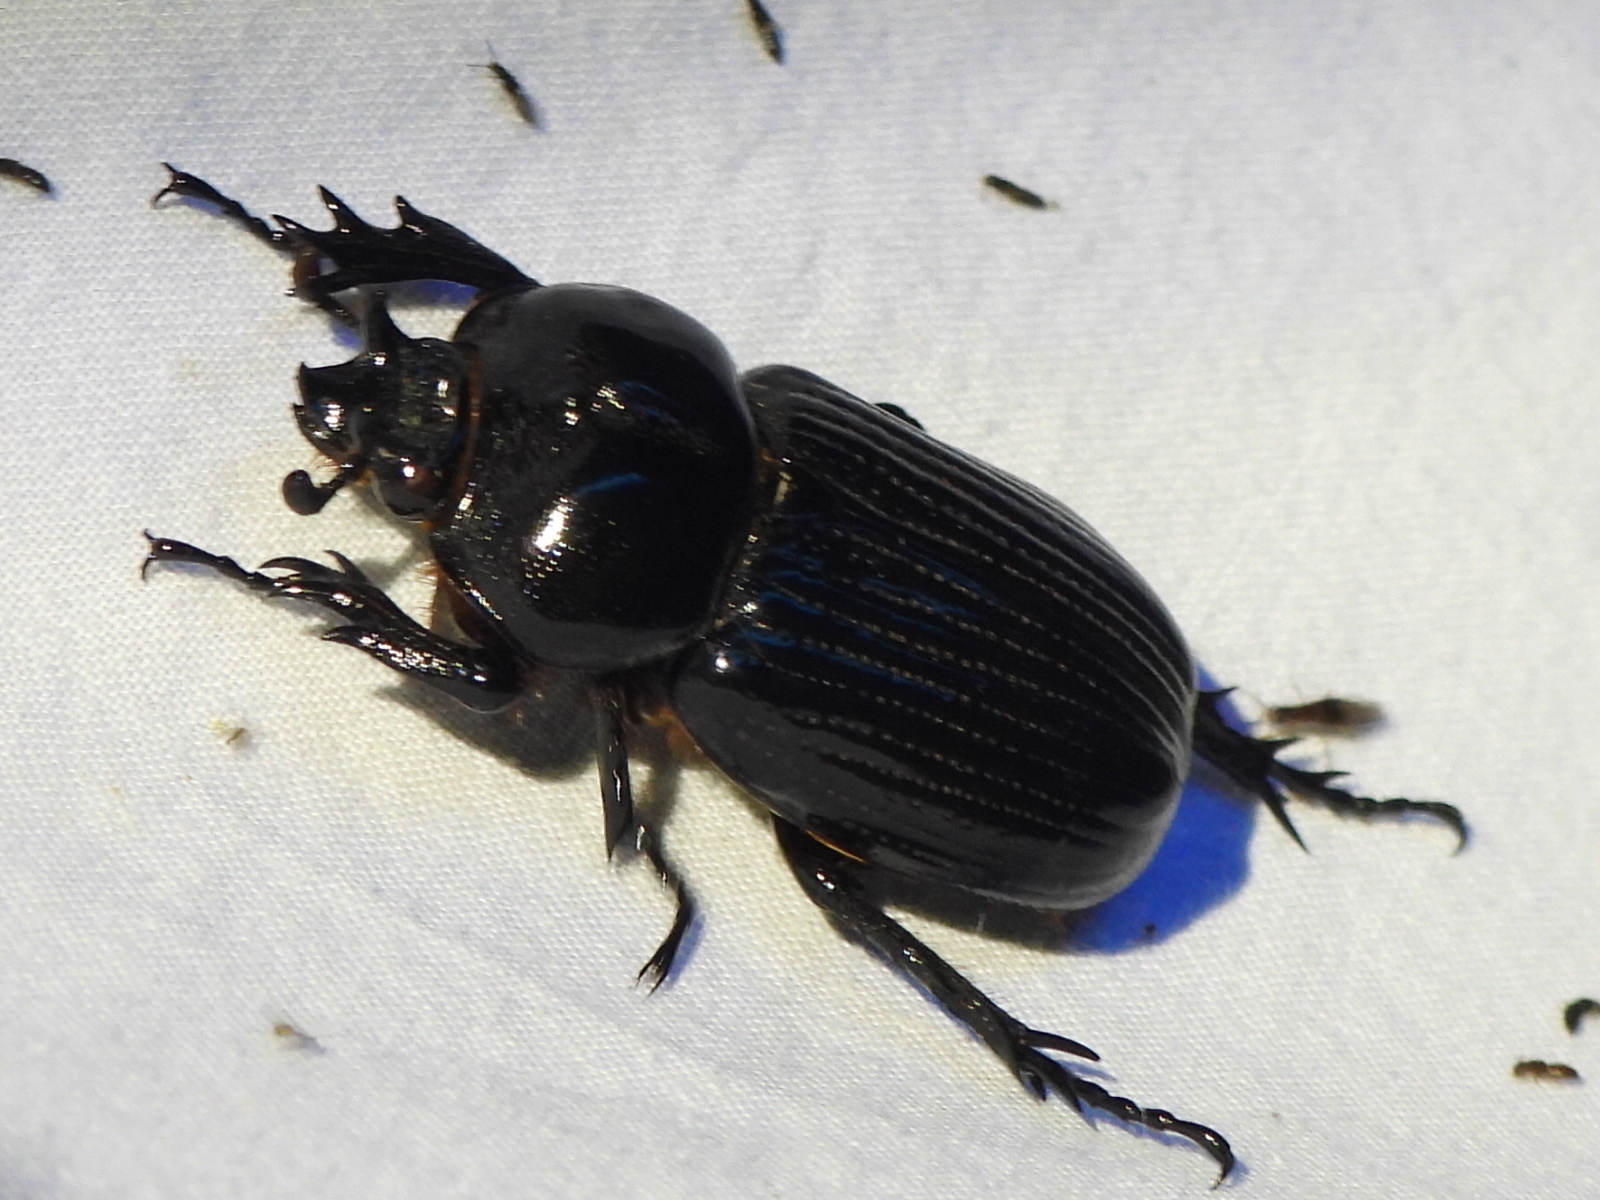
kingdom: Animalia
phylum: Arthropoda
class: Insecta
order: Coleoptera
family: Scarabaeidae
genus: Phileurus
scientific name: Phileurus truncatus
